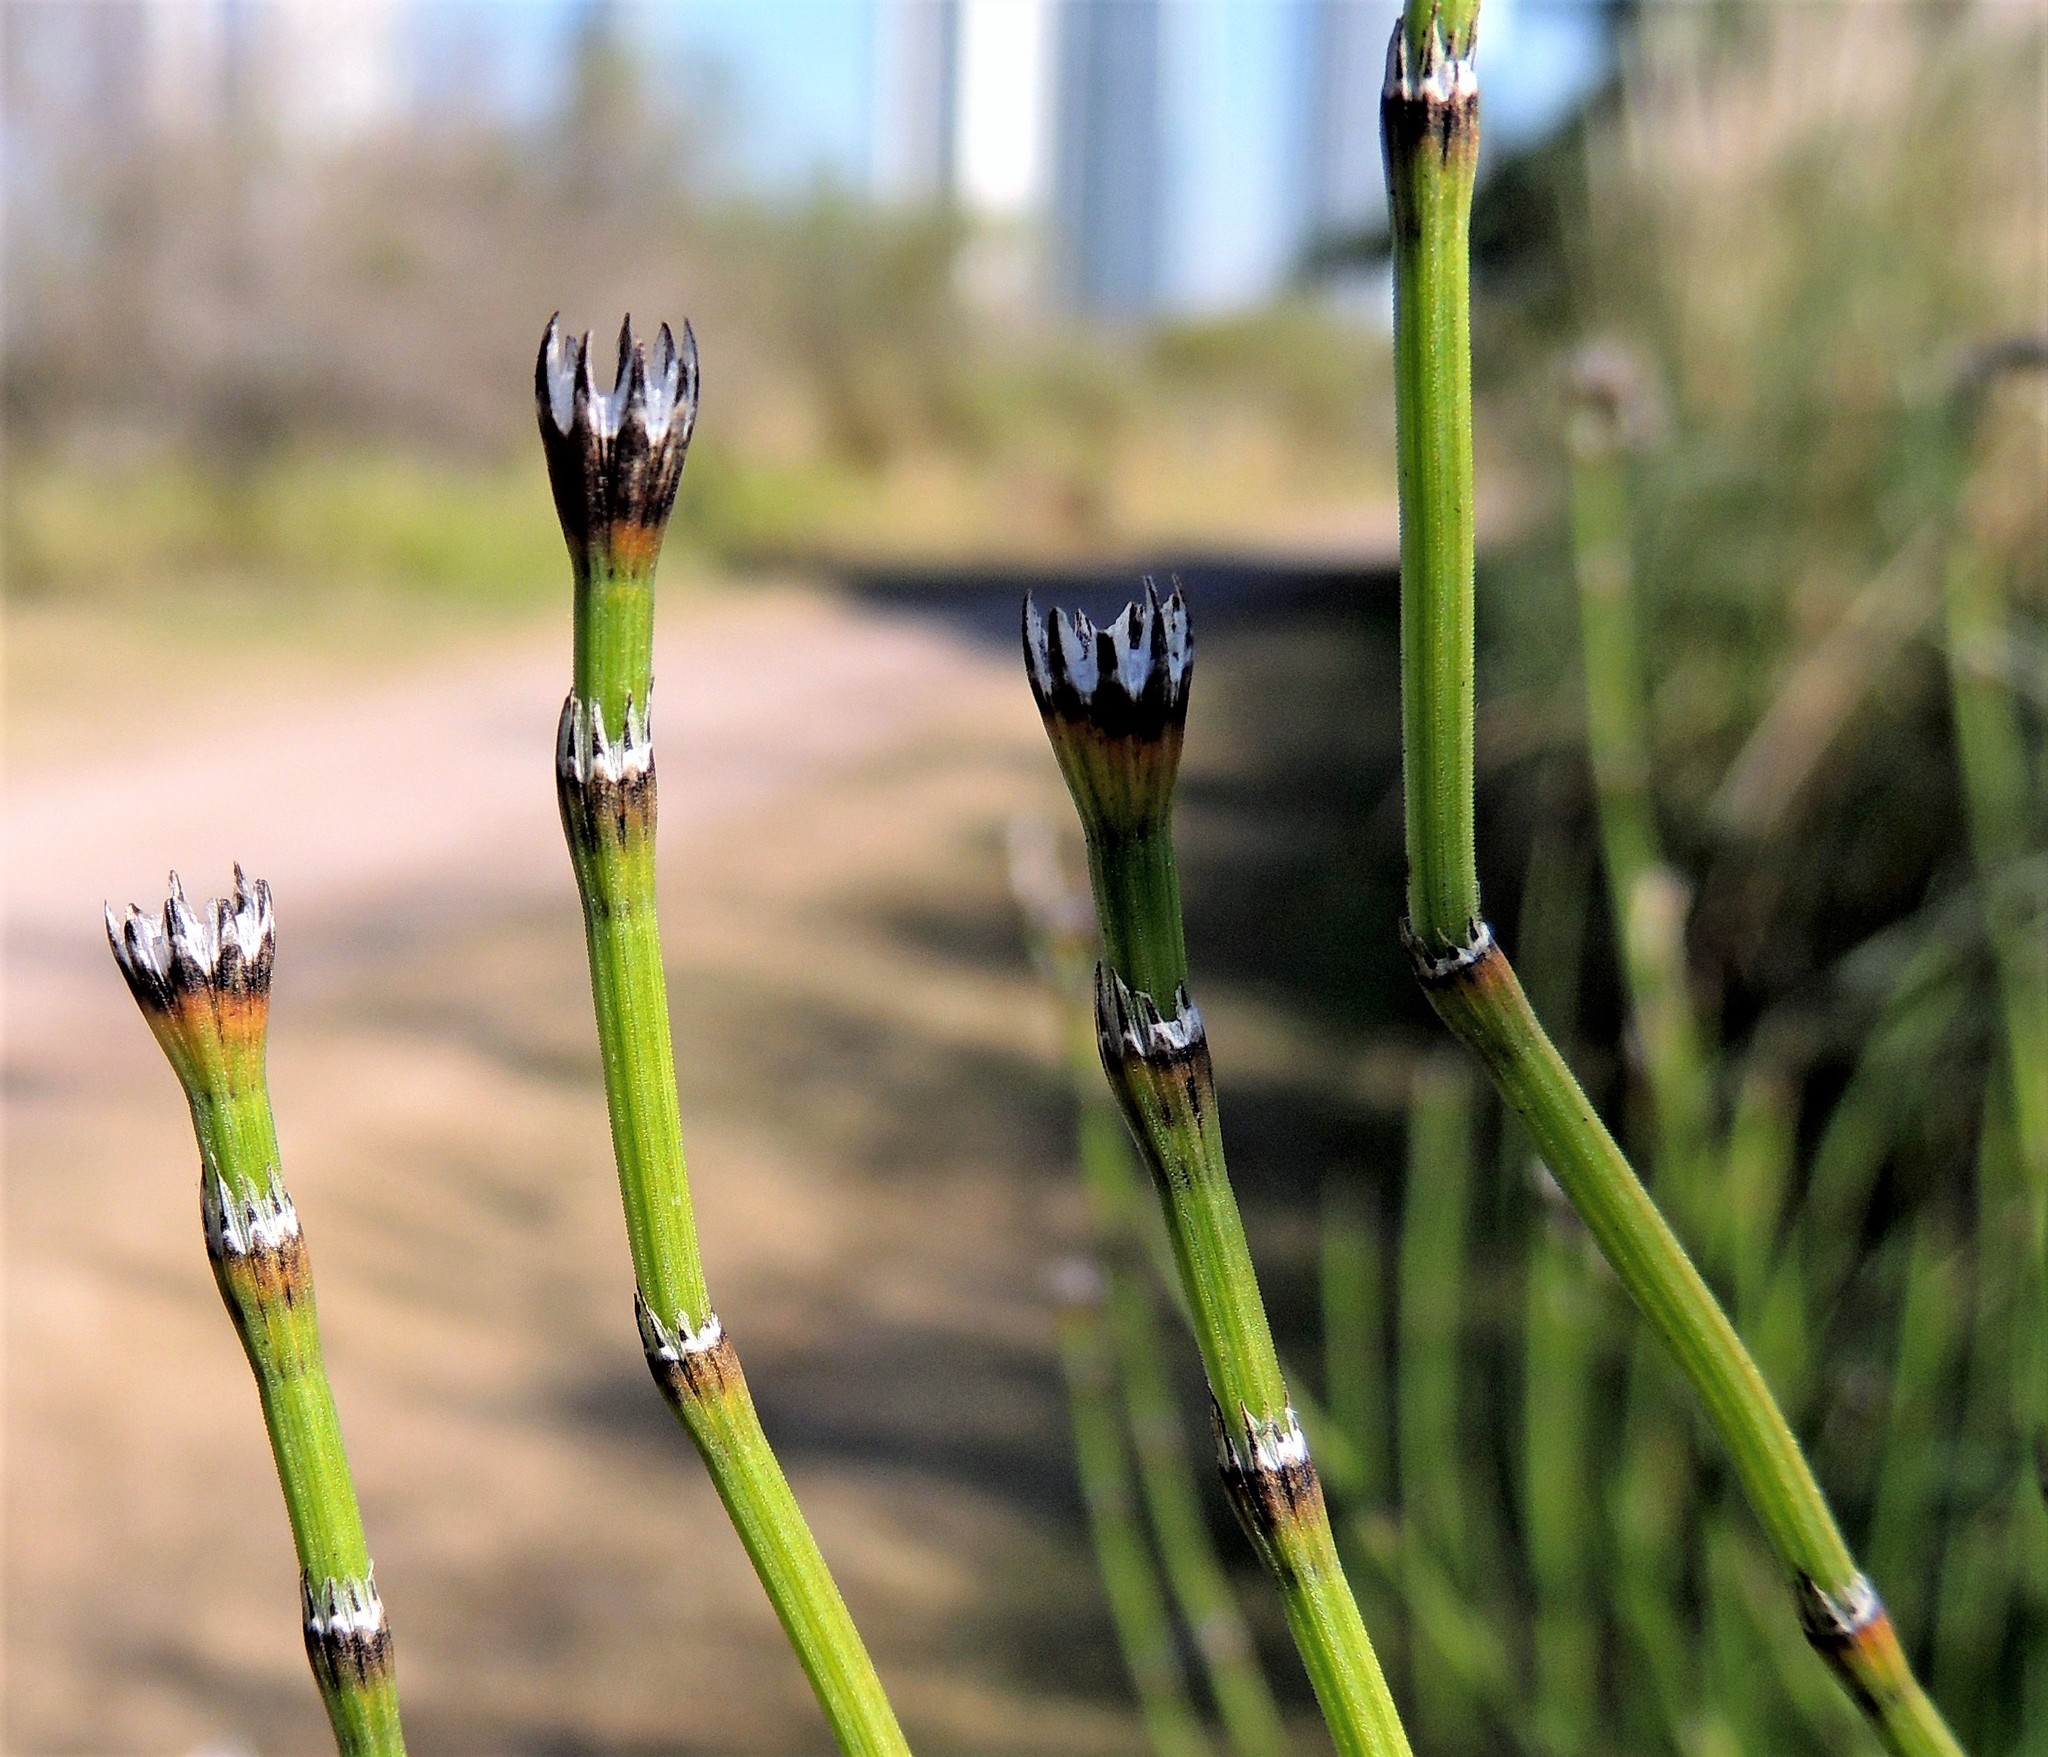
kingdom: Plantae
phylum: Tracheophyta
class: Polypodiopsida
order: Equisetales
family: Equisetaceae
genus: Equisetum
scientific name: Equisetum giganteum
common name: Giant horsetail
